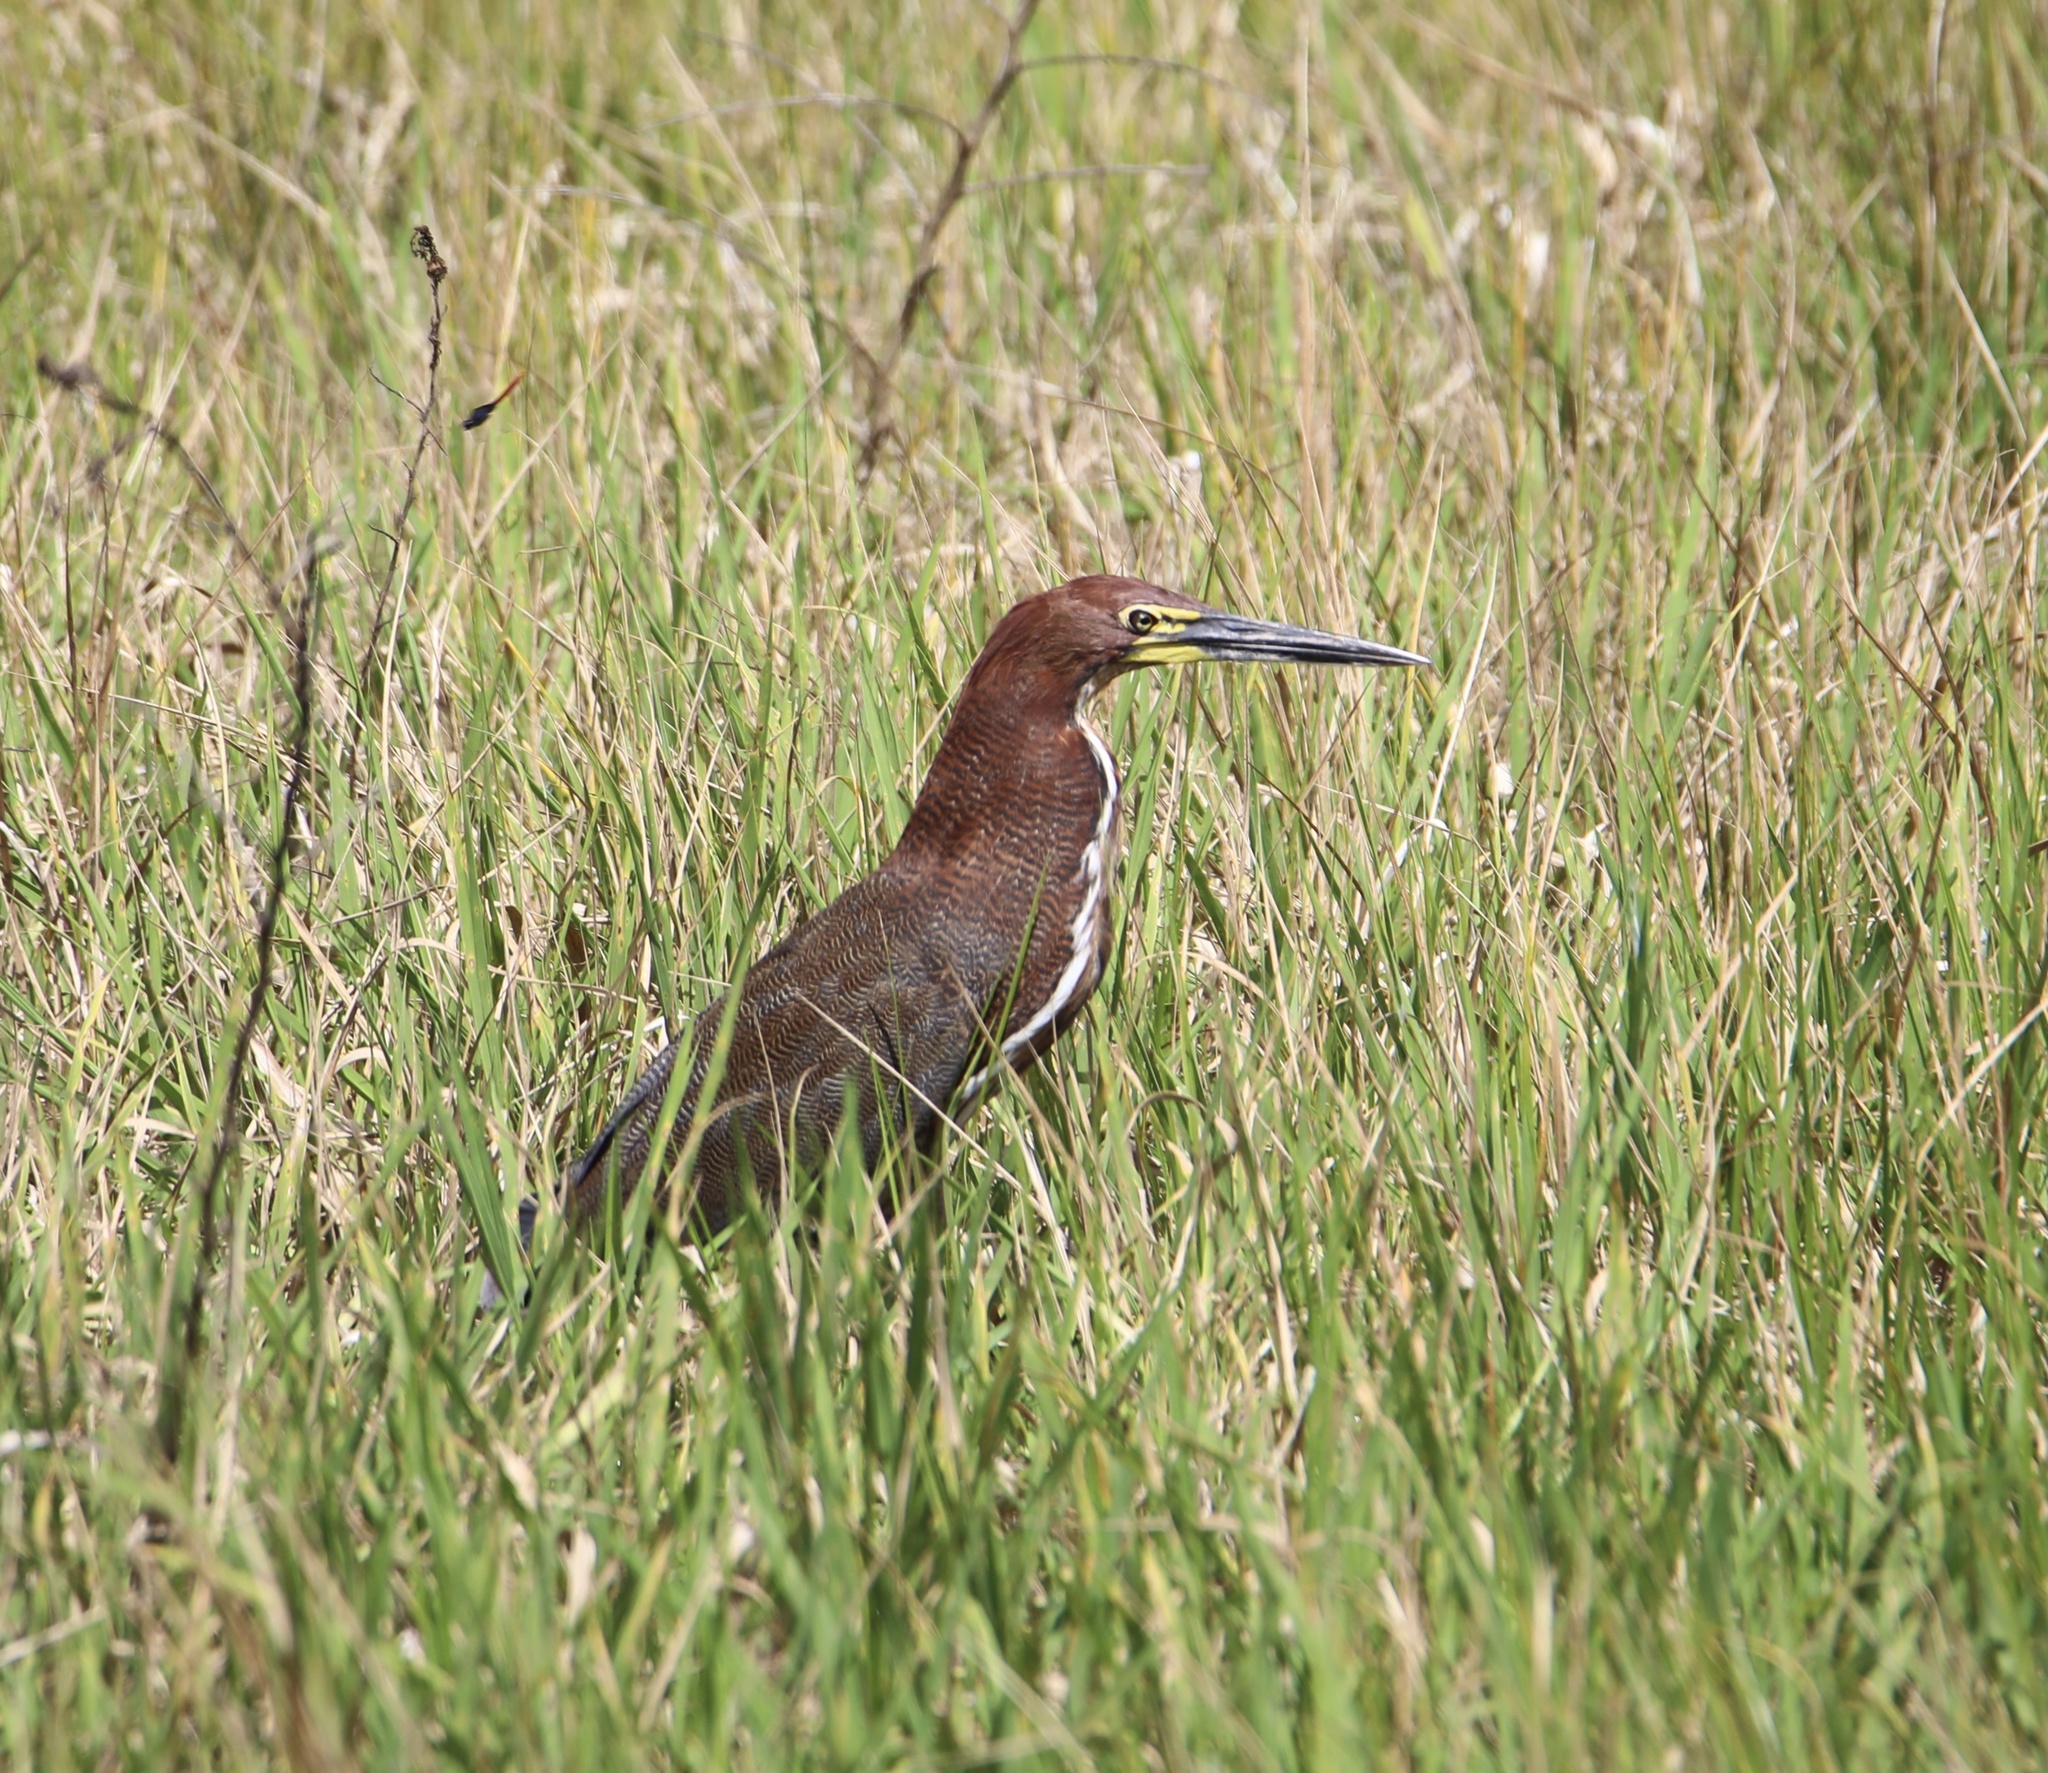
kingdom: Animalia
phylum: Chordata
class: Aves
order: Pelecaniformes
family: Ardeidae
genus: Tigrisoma
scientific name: Tigrisoma lineatum
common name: Rufescent tiger-heron
